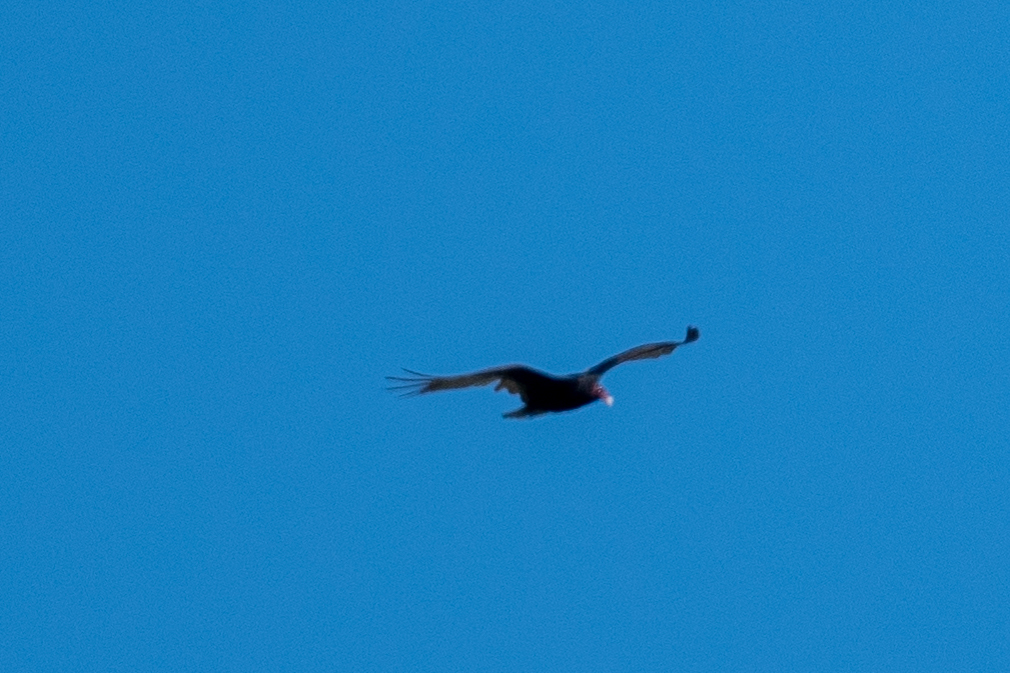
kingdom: Animalia
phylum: Chordata
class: Aves
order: Accipitriformes
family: Cathartidae
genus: Cathartes
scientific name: Cathartes aura
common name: Turkey vulture
